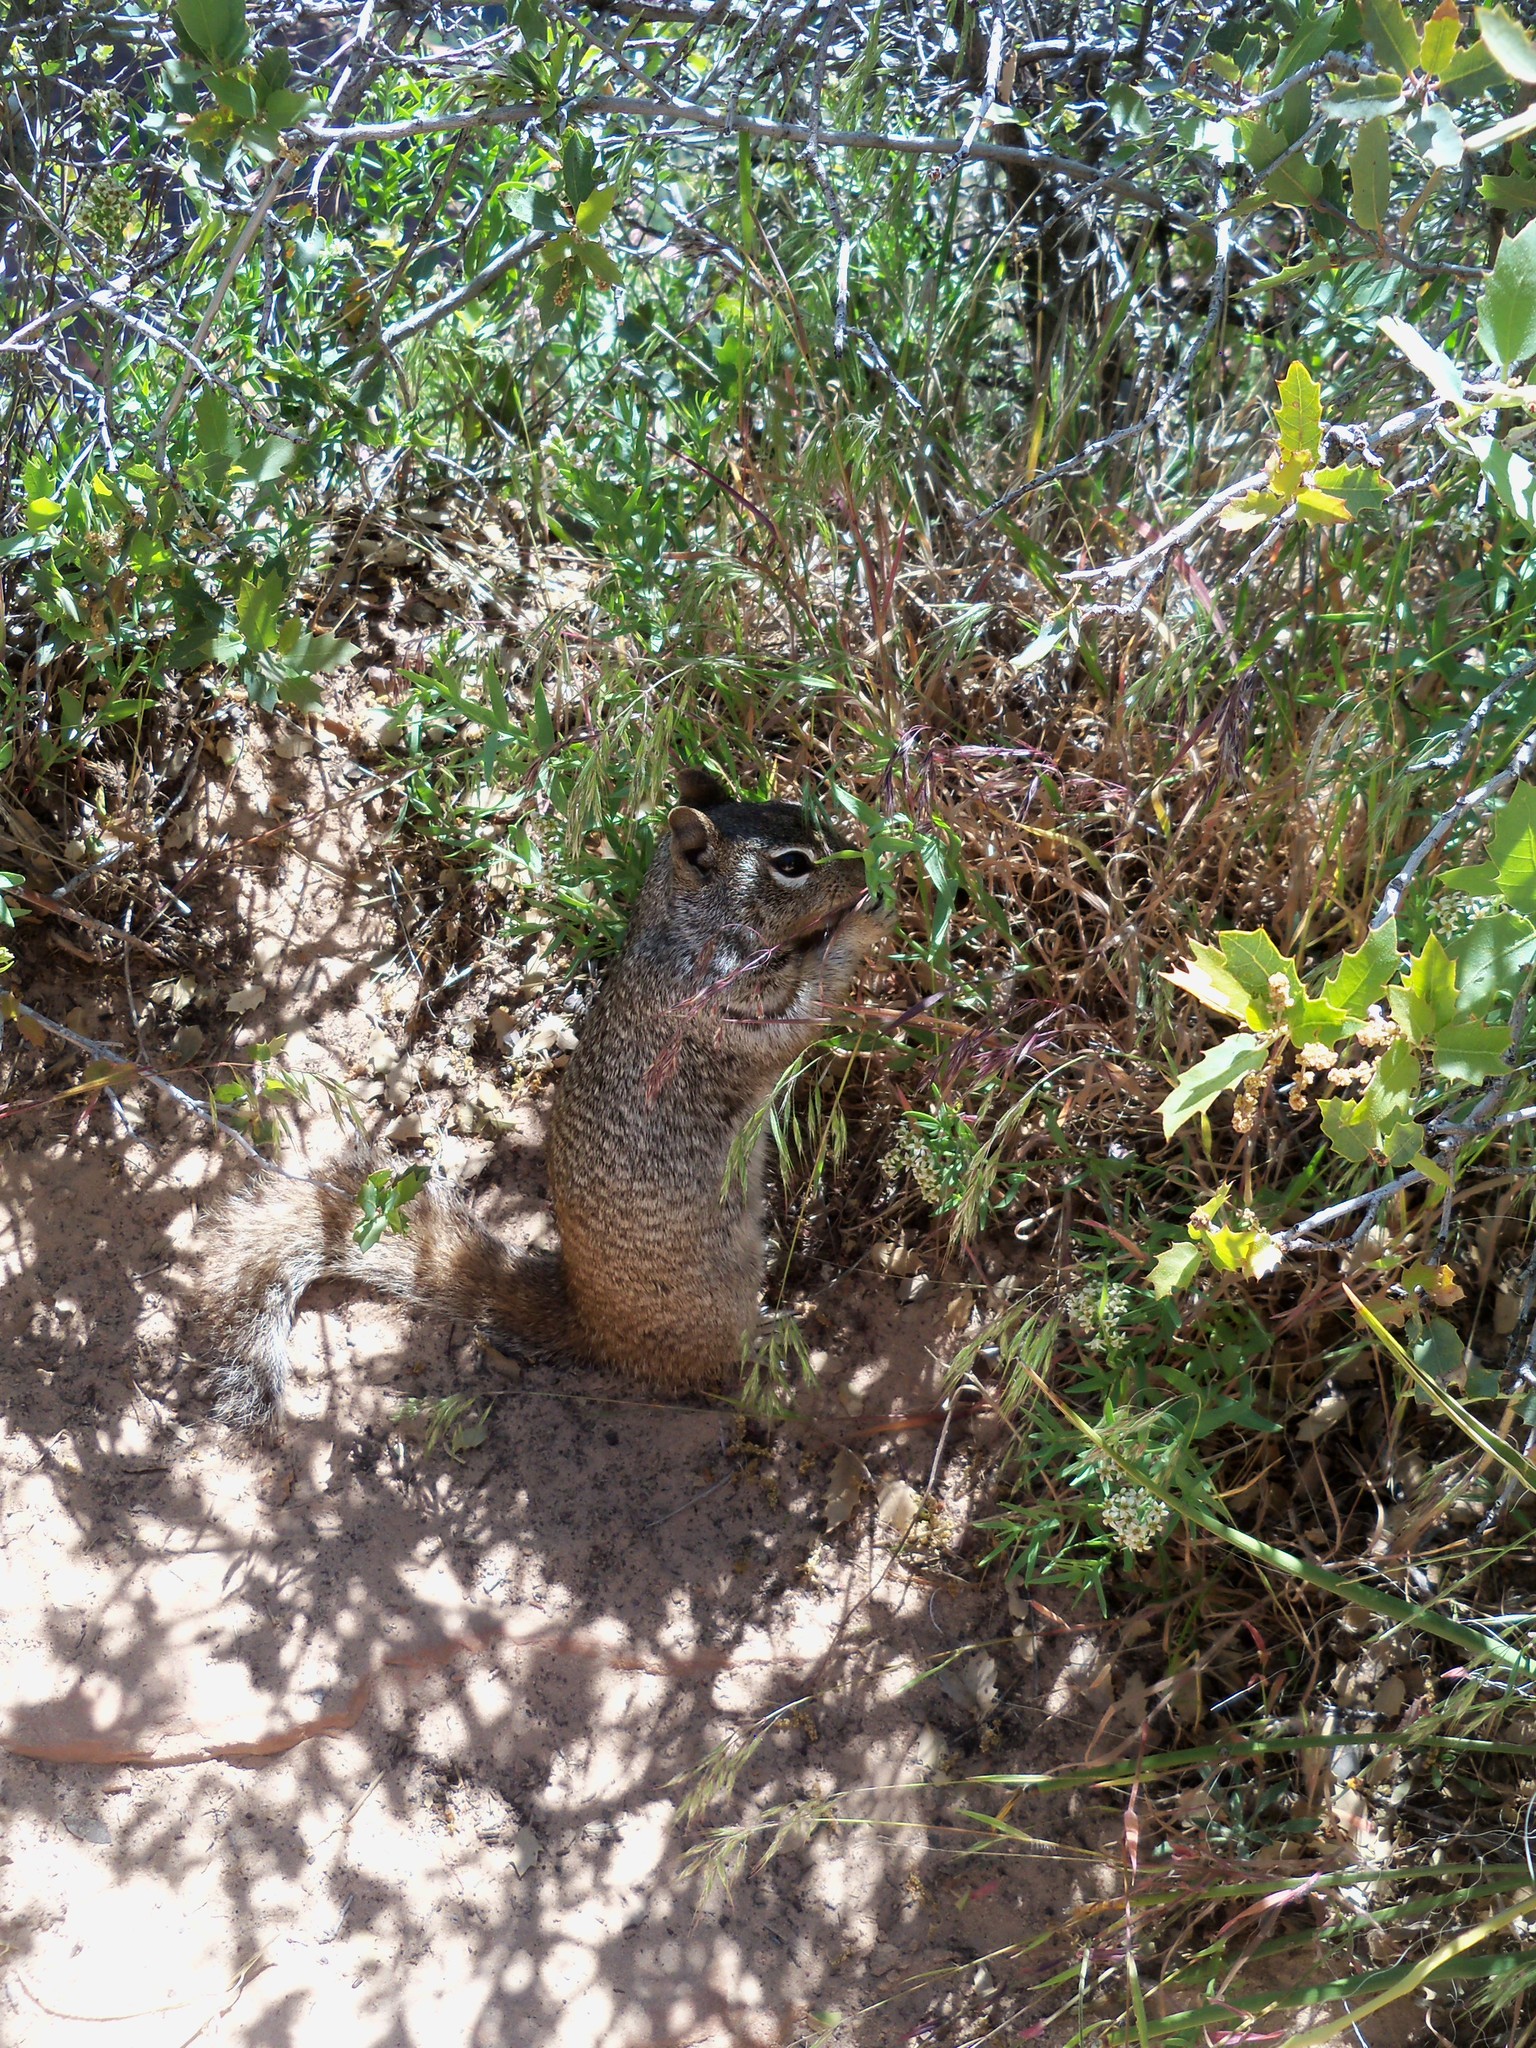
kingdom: Animalia
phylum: Chordata
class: Mammalia
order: Rodentia
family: Sciuridae
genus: Otospermophilus
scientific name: Otospermophilus variegatus
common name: Rock squirrel
